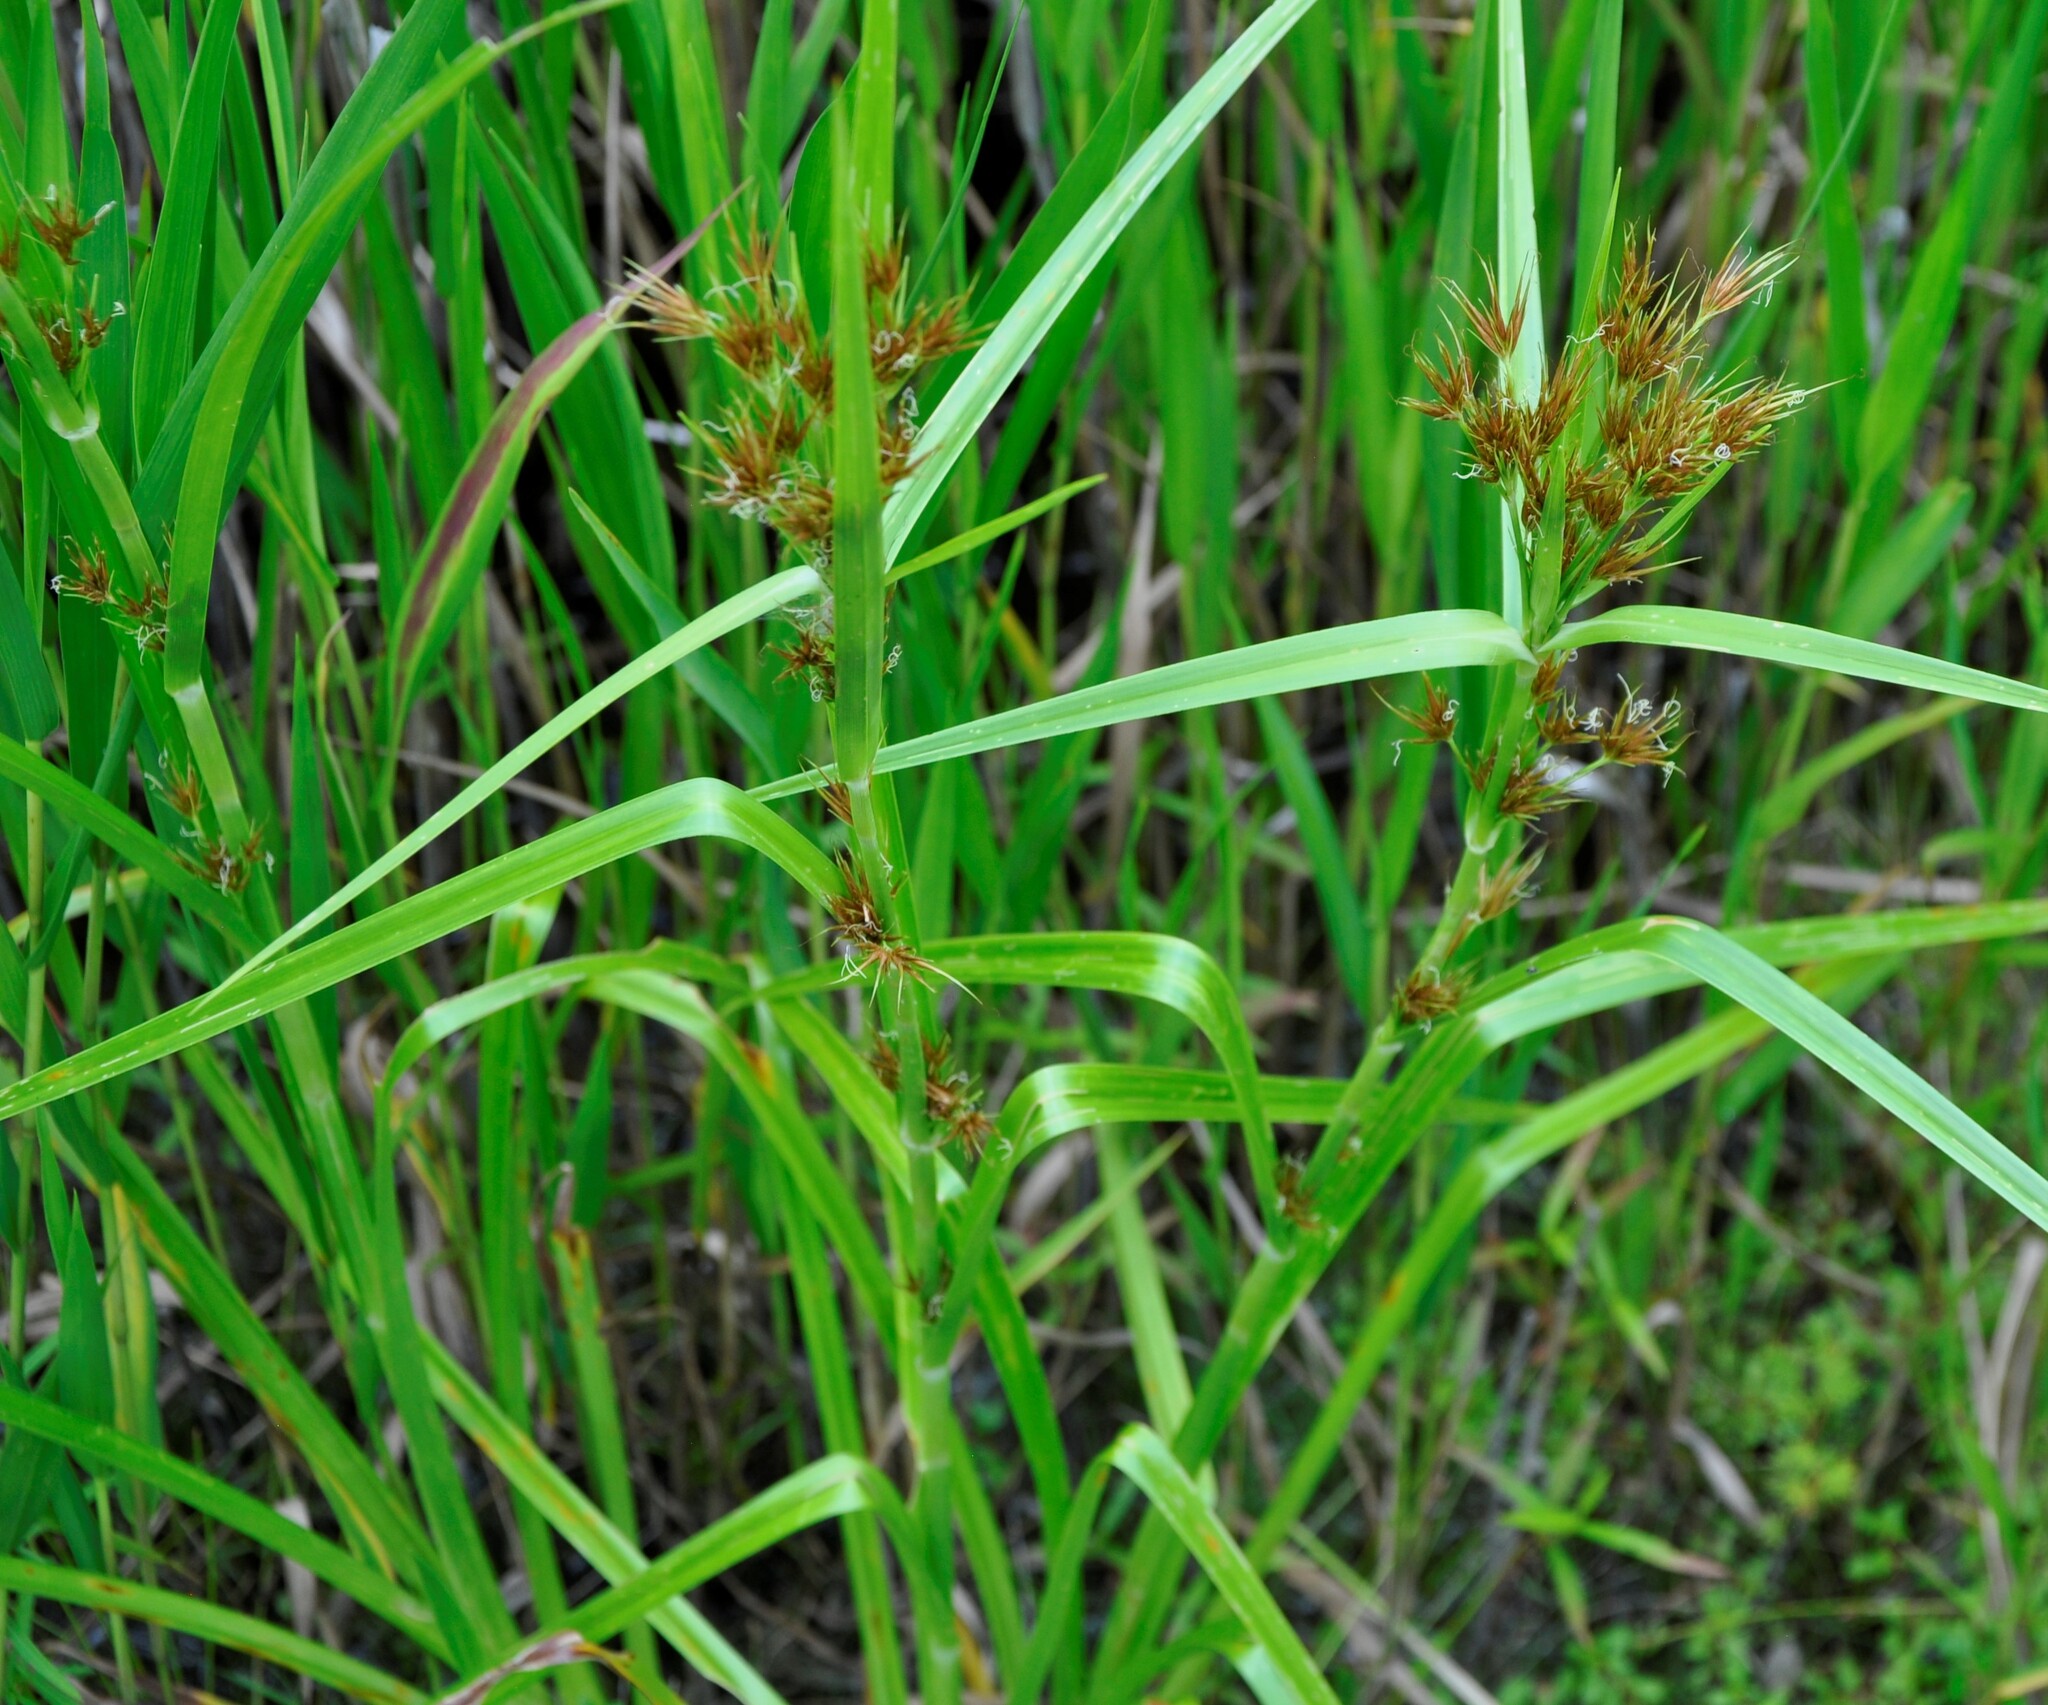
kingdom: Plantae
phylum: Tracheophyta
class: Liliopsida
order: Poales
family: Cyperaceae
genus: Rhynchospora
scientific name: Rhynchospora macrostachya
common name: Tall beakrush
